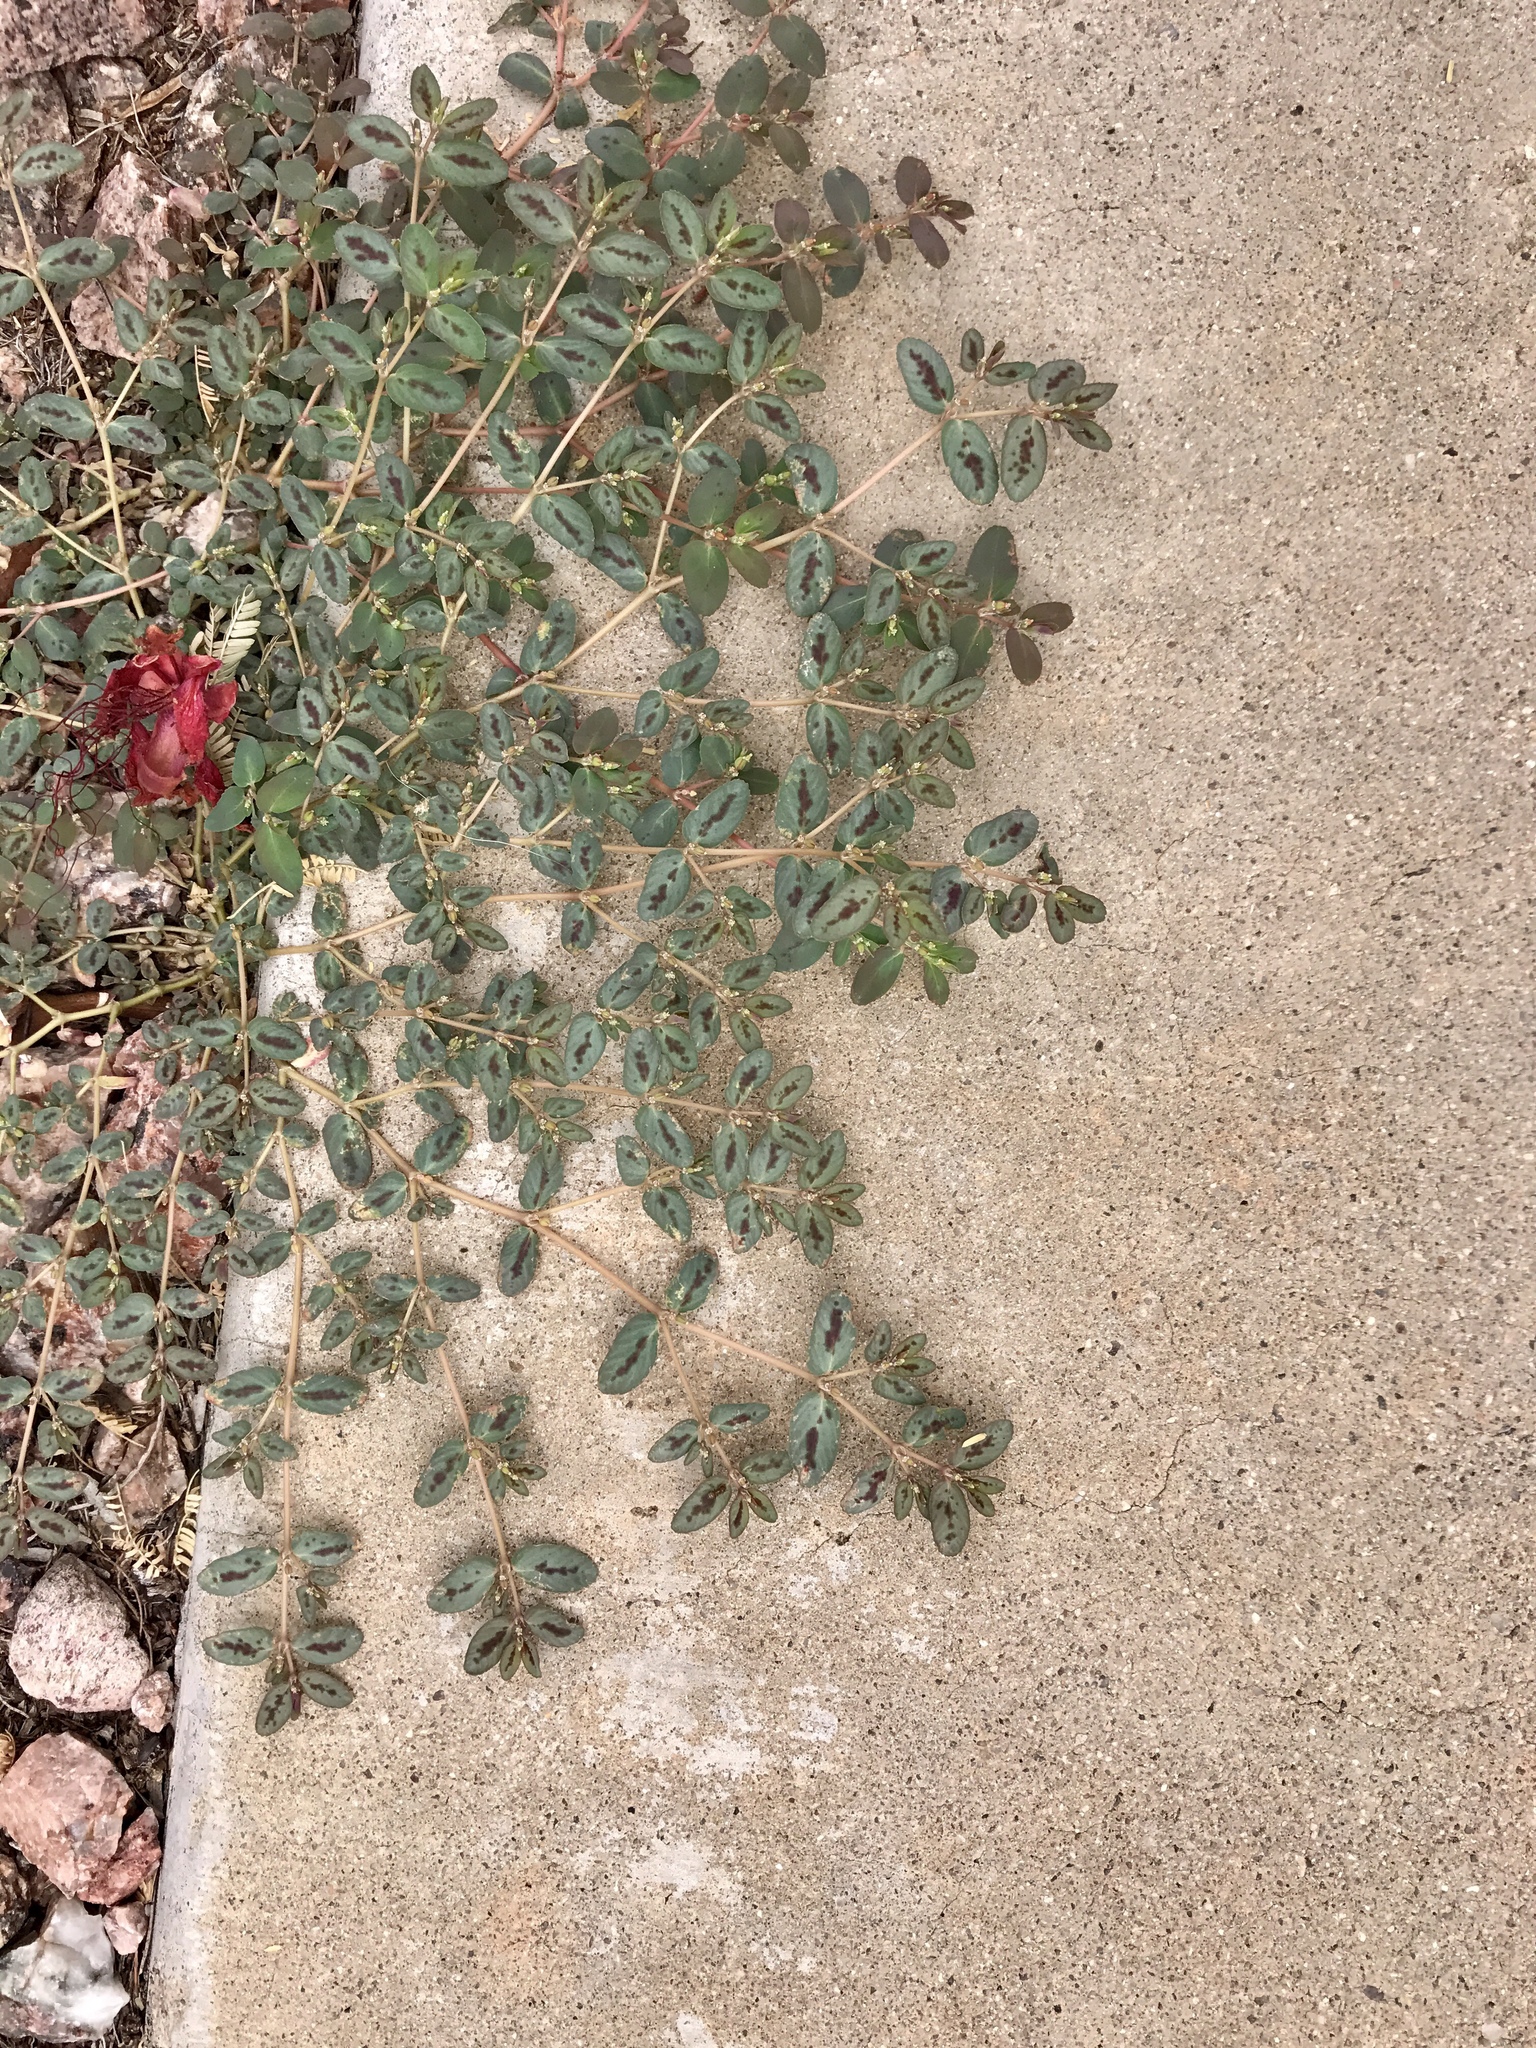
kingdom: Plantae
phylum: Tracheophyta
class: Magnoliopsida
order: Malpighiales
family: Euphorbiaceae
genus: Euphorbia
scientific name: Euphorbia abramsiana
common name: Abram's spurge
